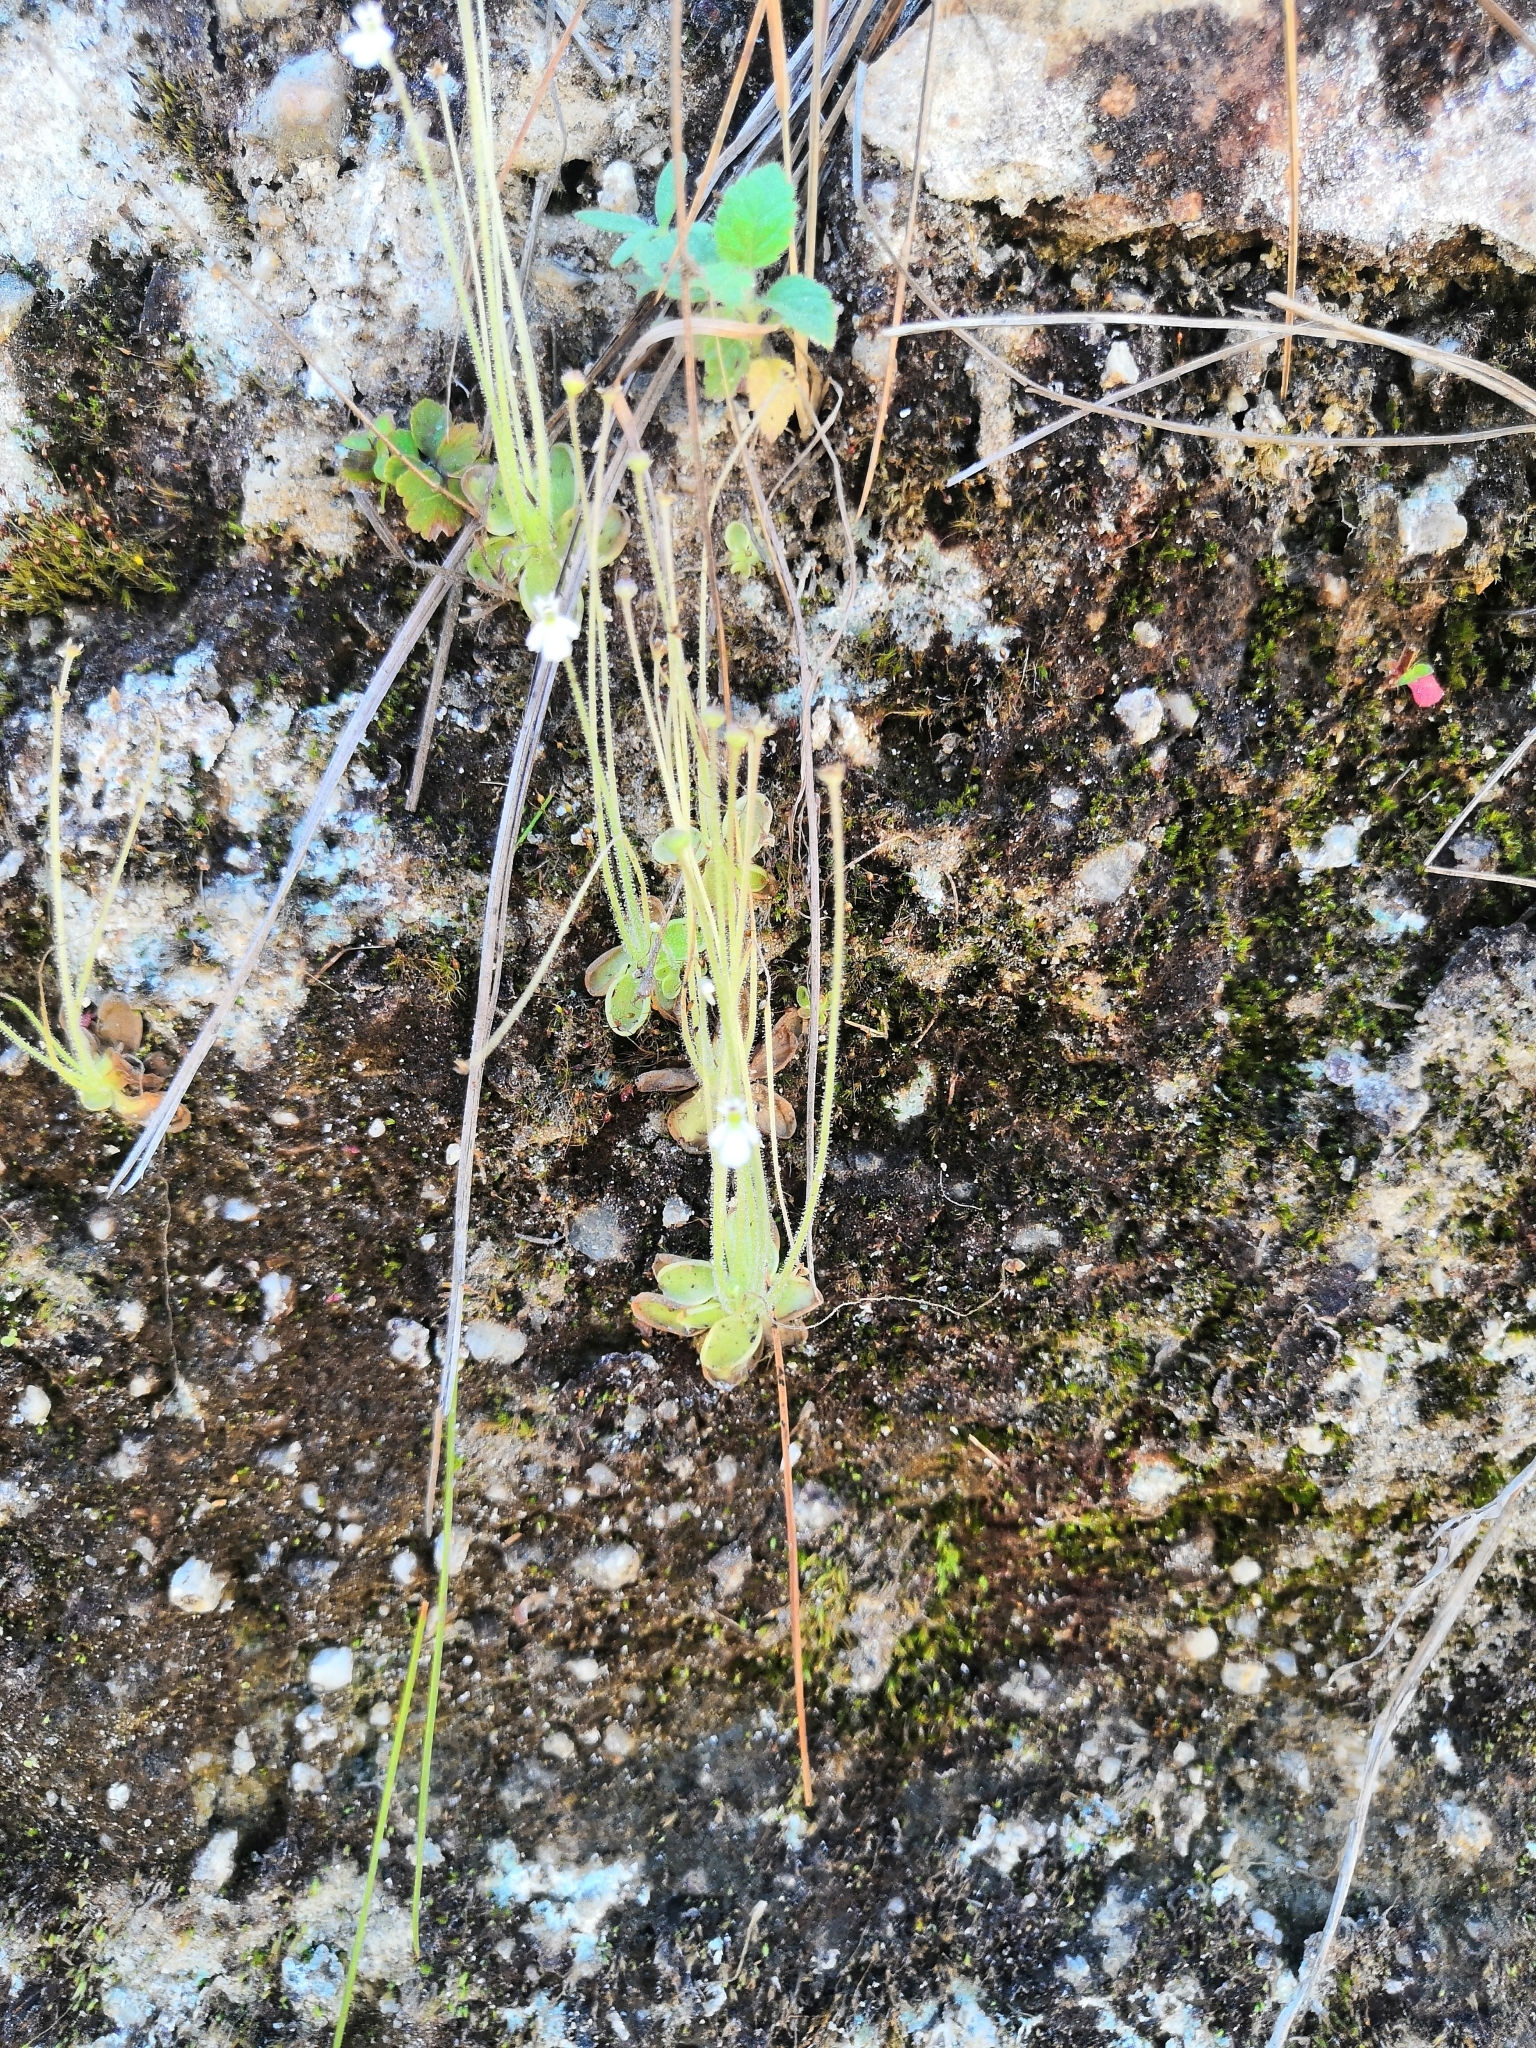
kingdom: Plantae
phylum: Tracheophyta
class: Magnoliopsida
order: Lamiales
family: Lentibulariaceae
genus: Pinguicula
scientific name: Pinguicula crenatiloba
